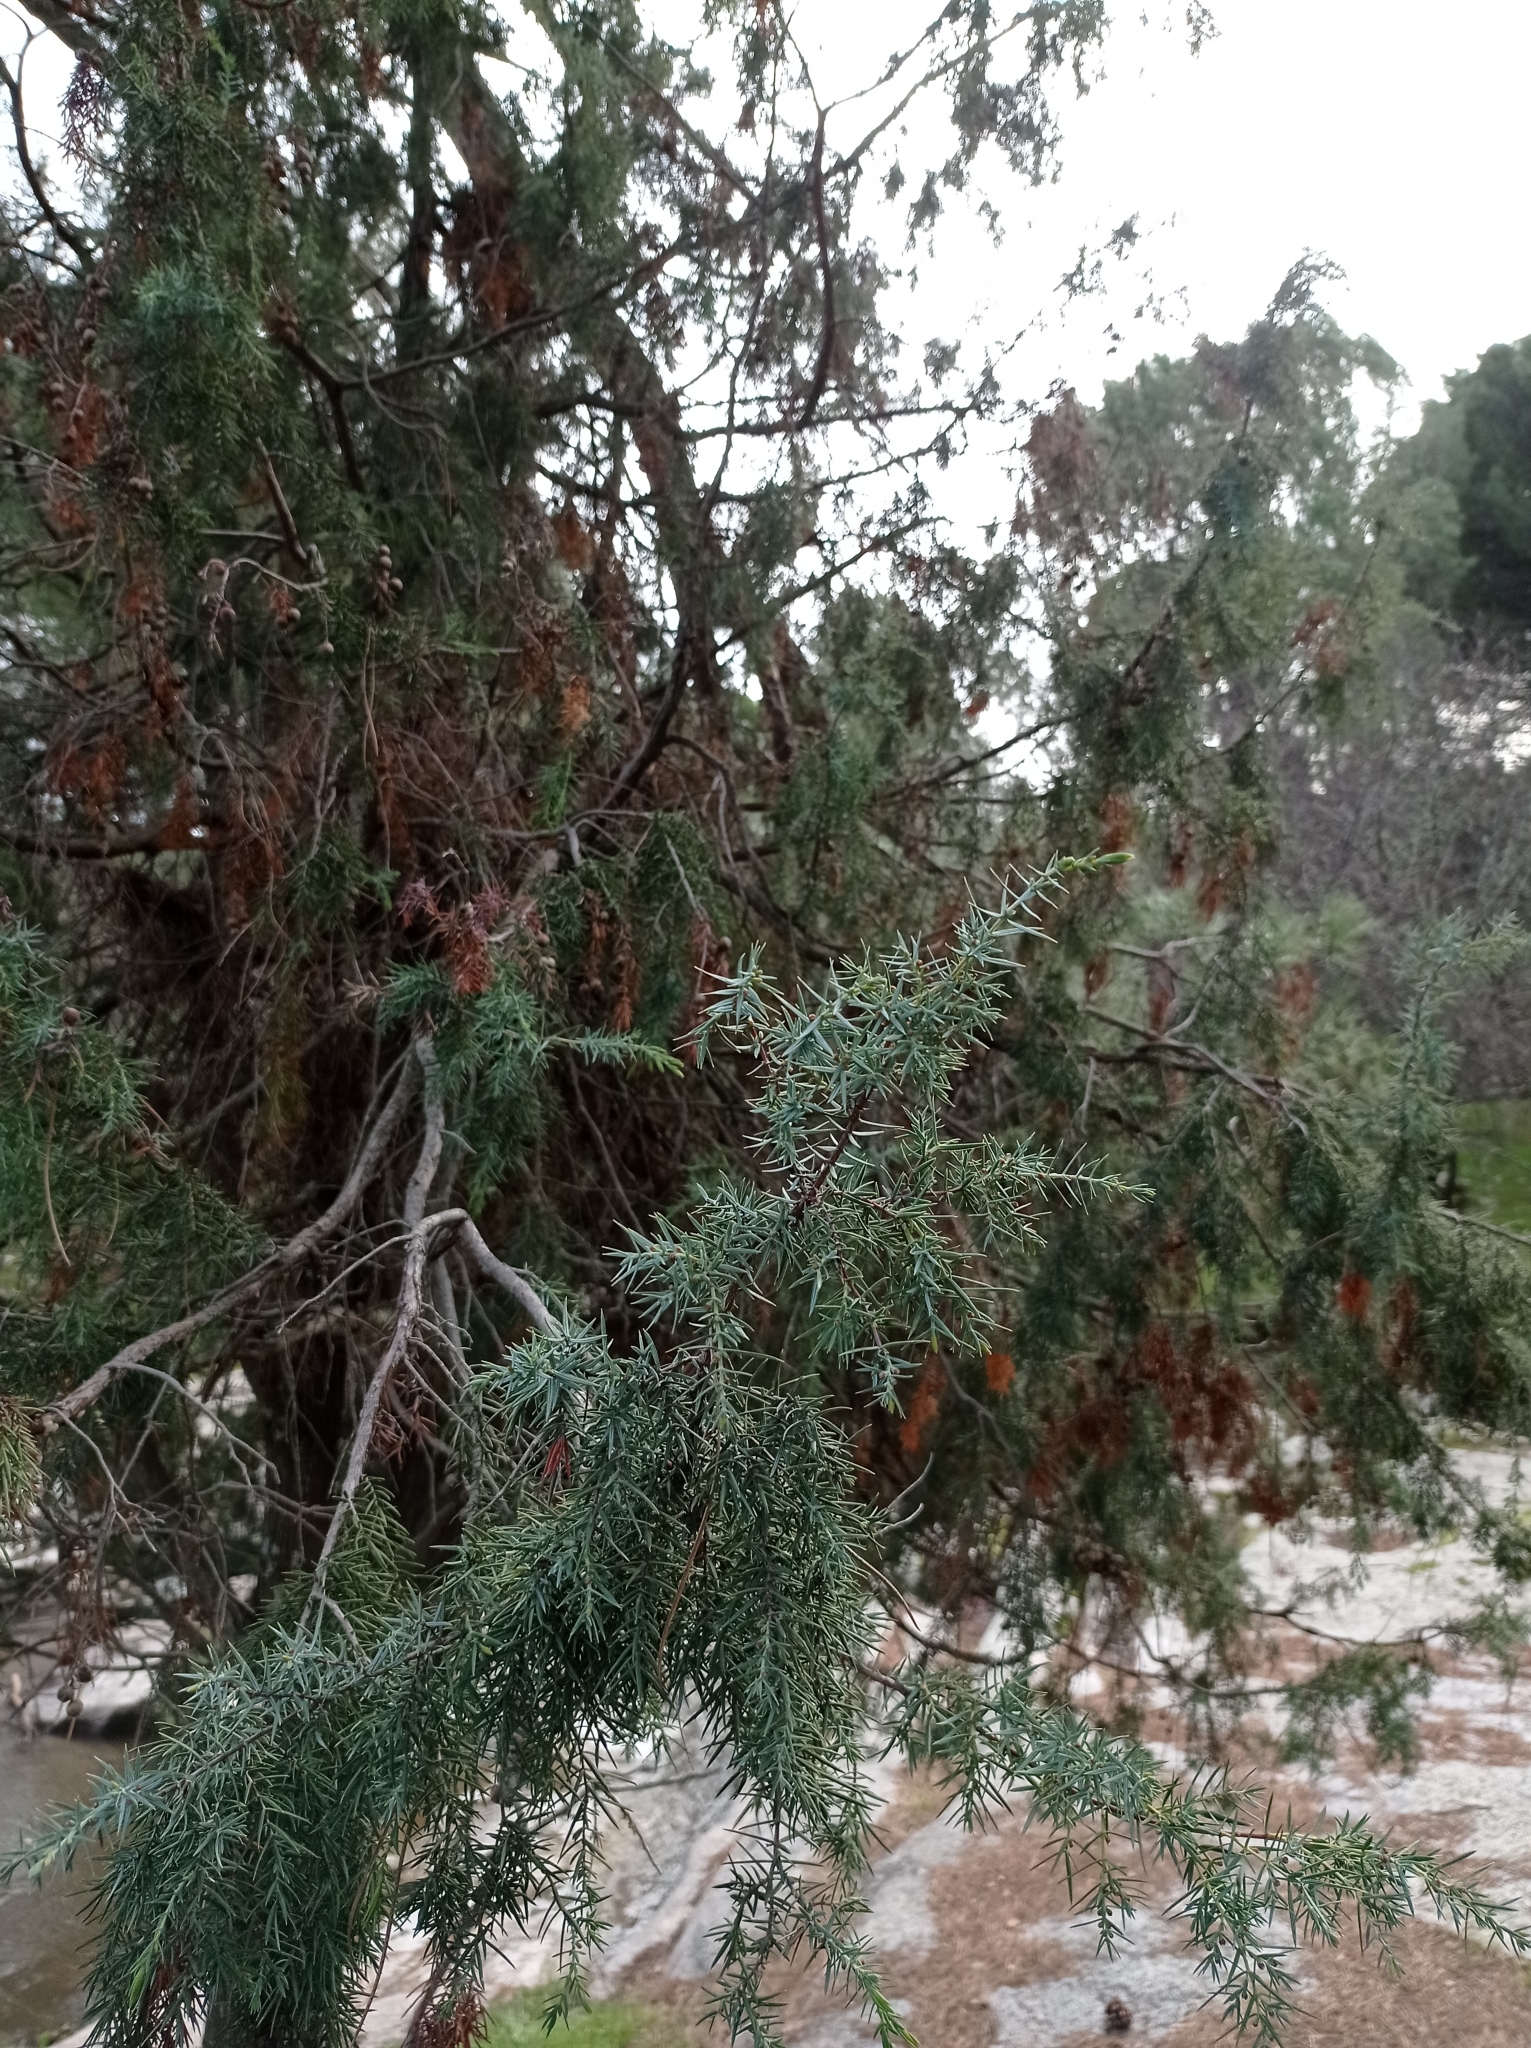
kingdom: Plantae
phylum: Tracheophyta
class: Pinopsida
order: Pinales
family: Cupressaceae
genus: Juniperus
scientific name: Juniperus oxycedrus
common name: Prickly juniper
